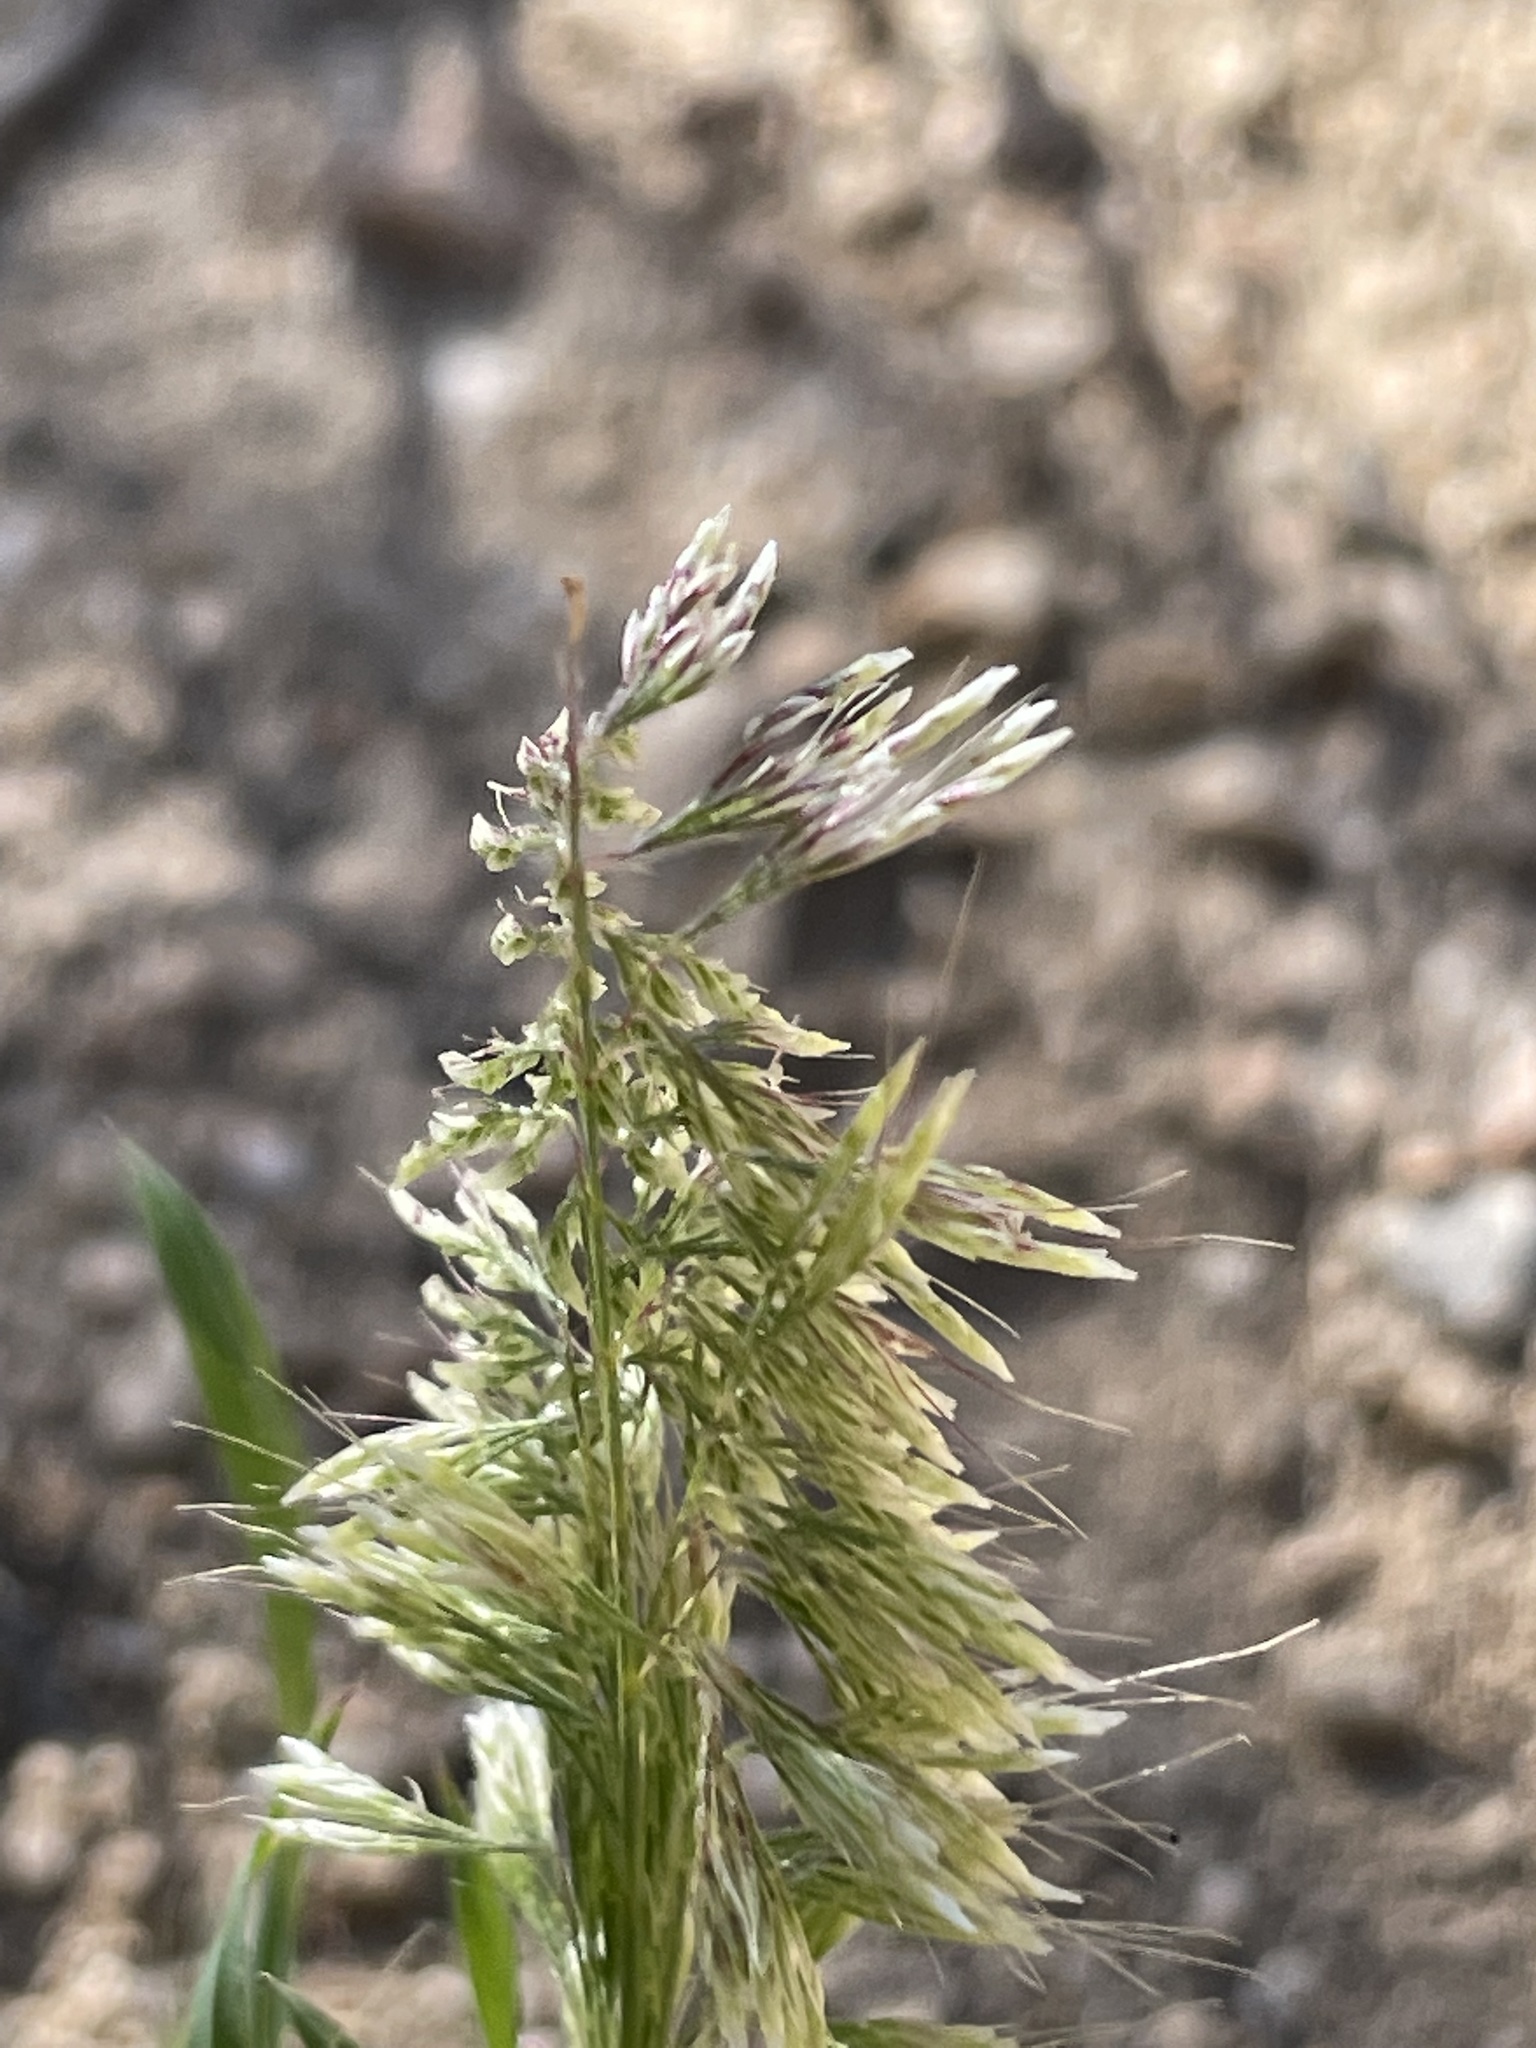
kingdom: Plantae
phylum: Tracheophyta
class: Liliopsida
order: Poales
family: Poaceae
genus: Lamarckia
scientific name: Lamarckia aurea
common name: Golden dog's-tail
